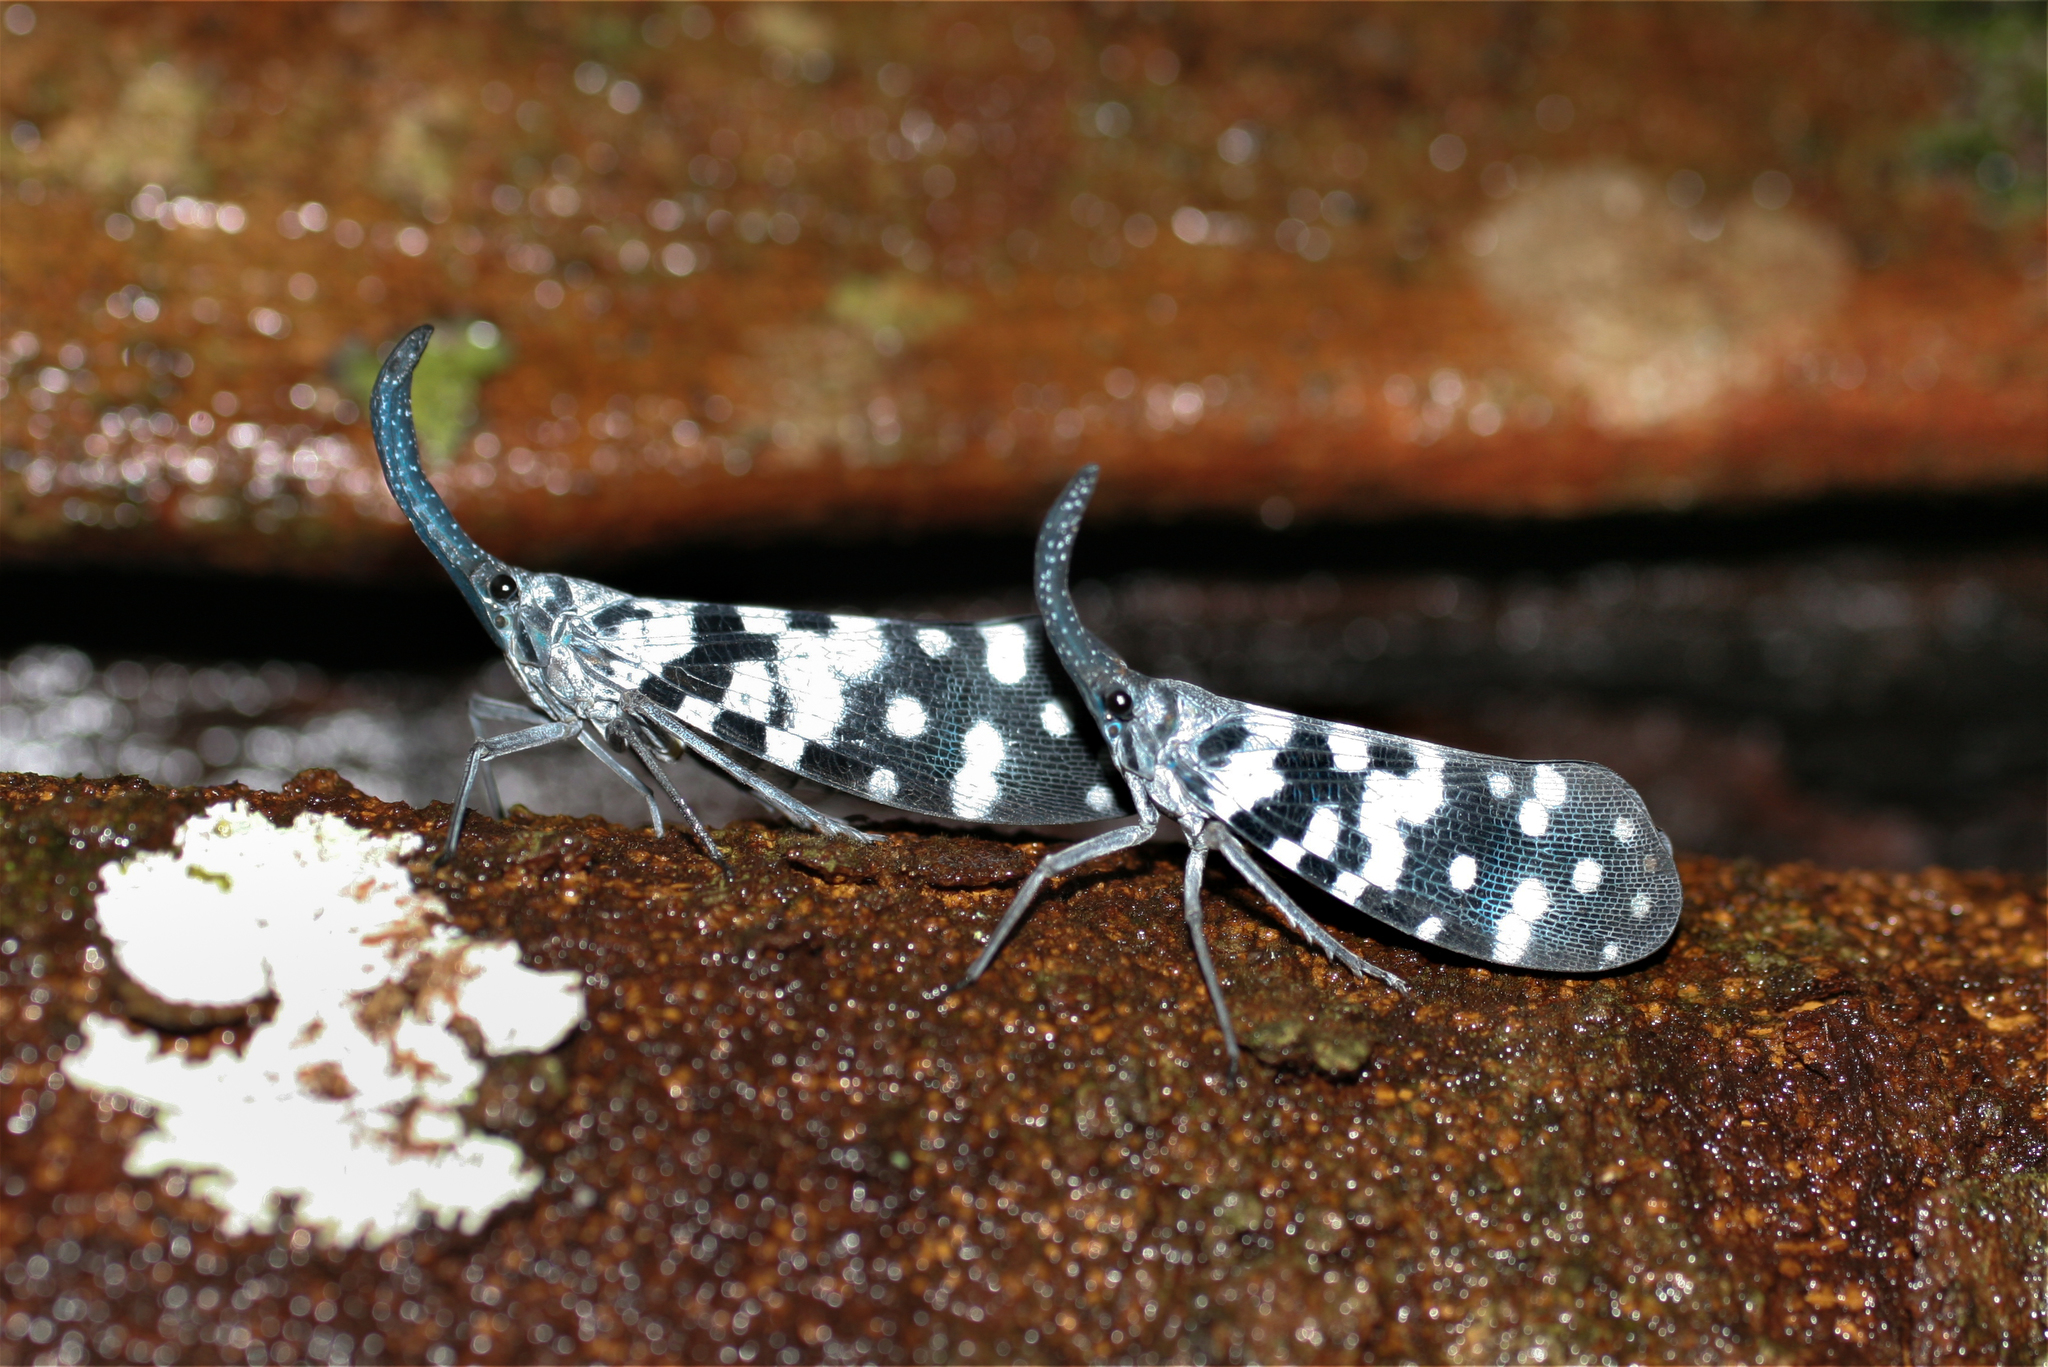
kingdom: Animalia
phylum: Arthropoda
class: Insecta
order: Hemiptera
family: Fulgoridae
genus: Pyrops
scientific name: Pyrops maculatus
